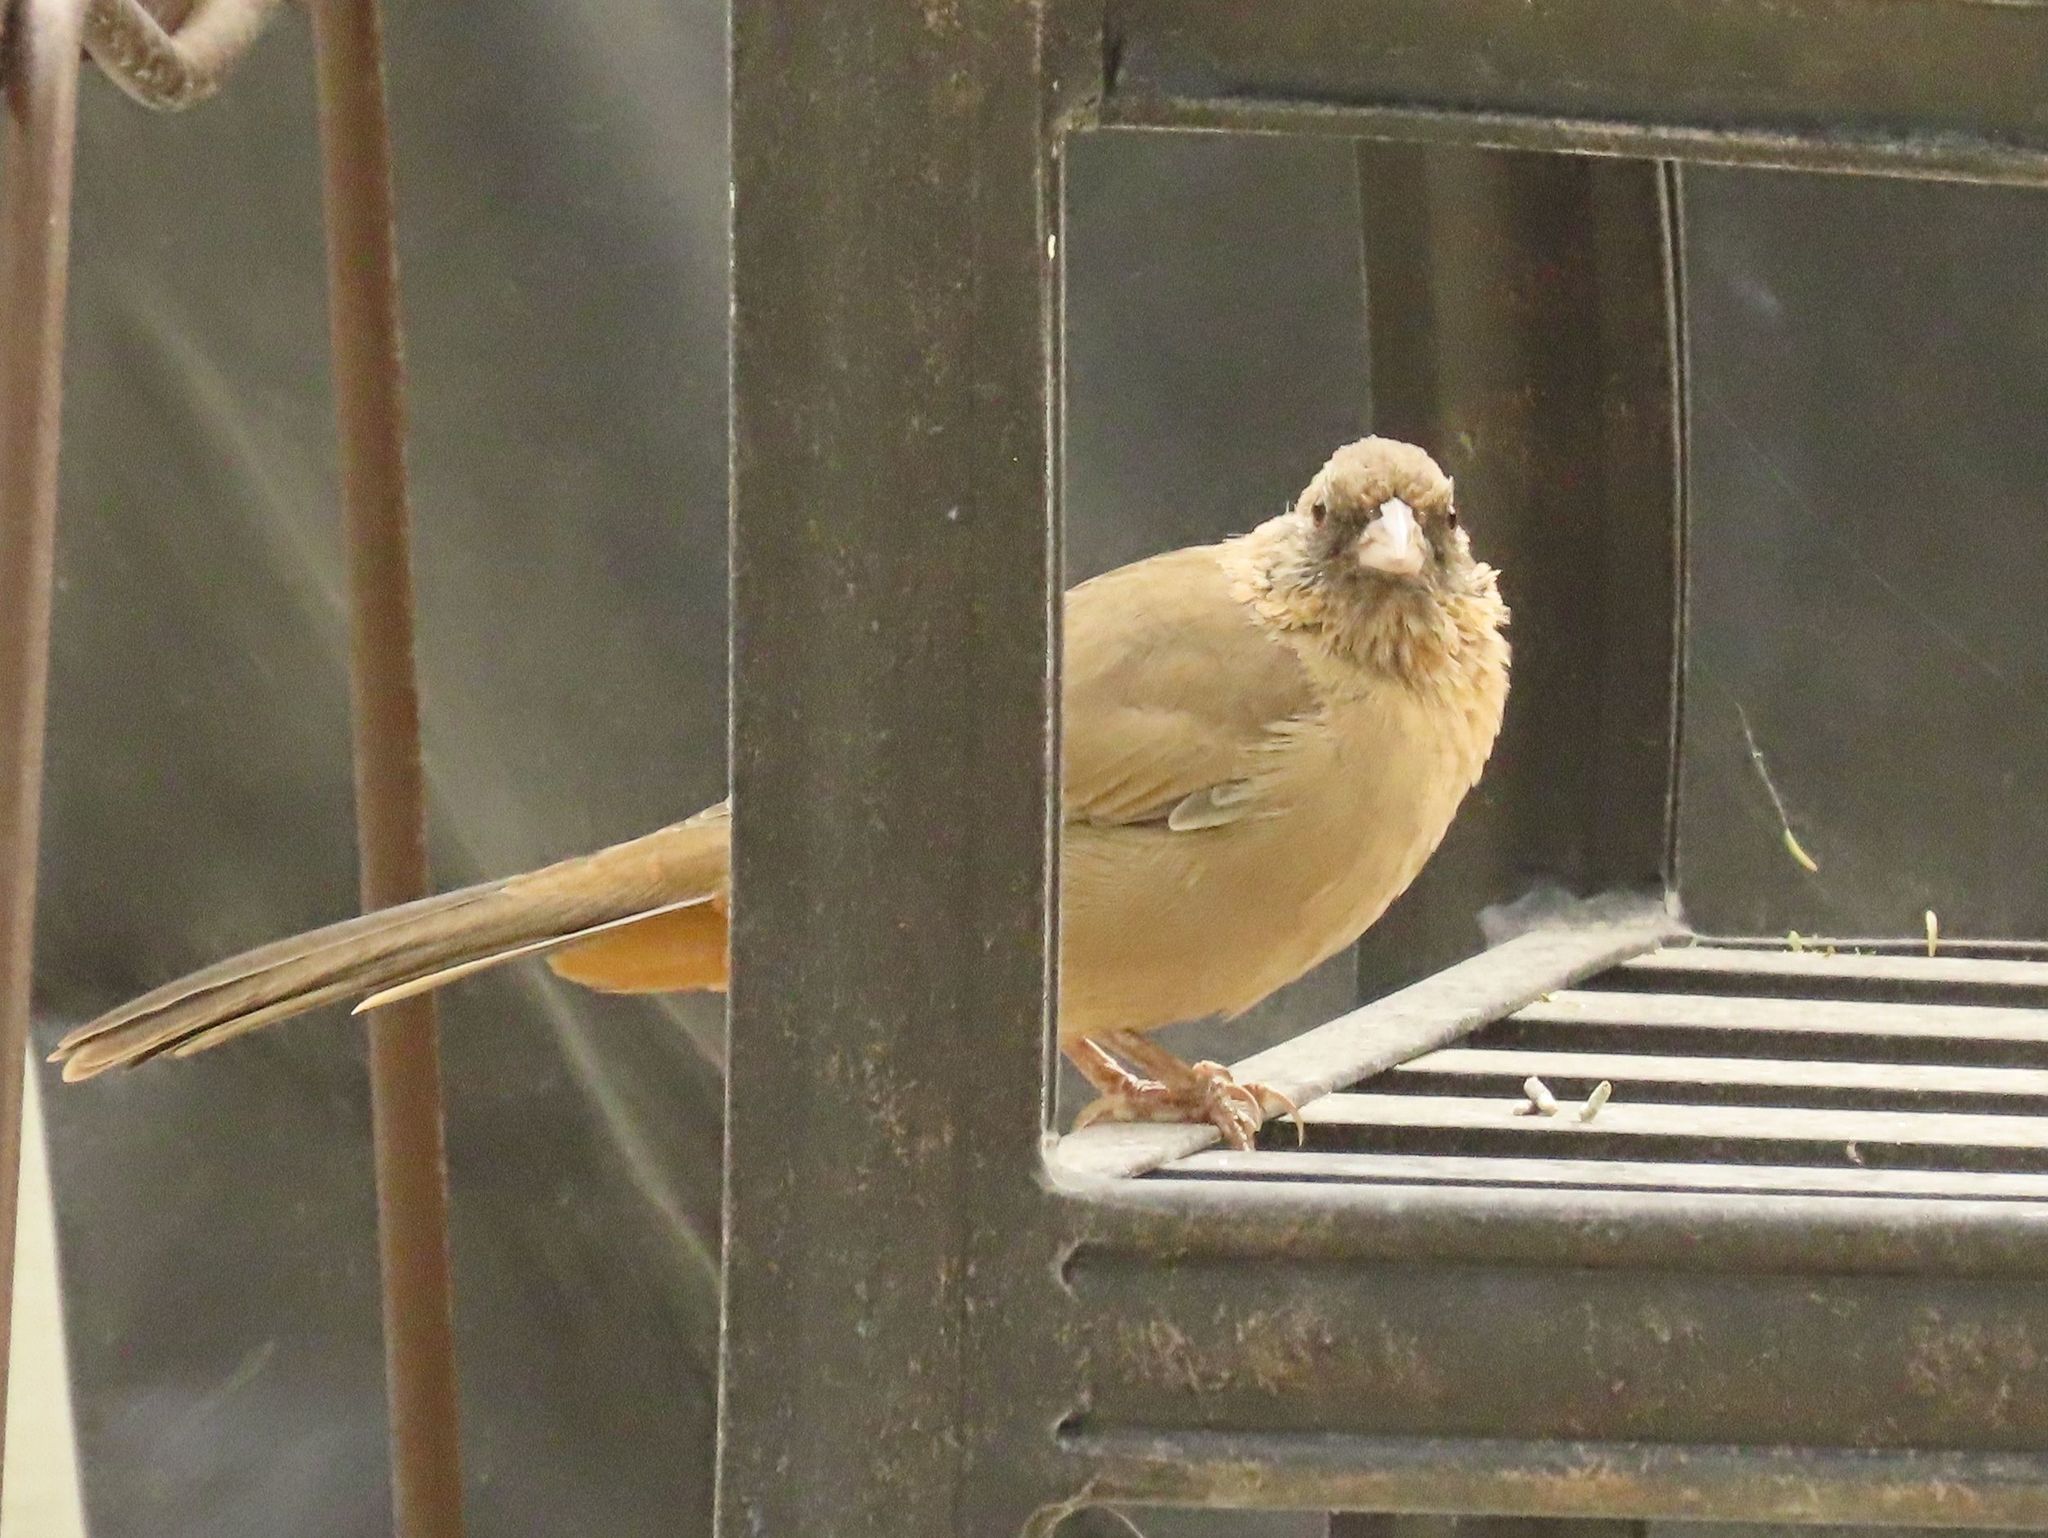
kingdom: Animalia
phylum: Chordata
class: Aves
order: Passeriformes
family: Passerellidae
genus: Melozone
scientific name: Melozone aberti
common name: Abert's towhee
